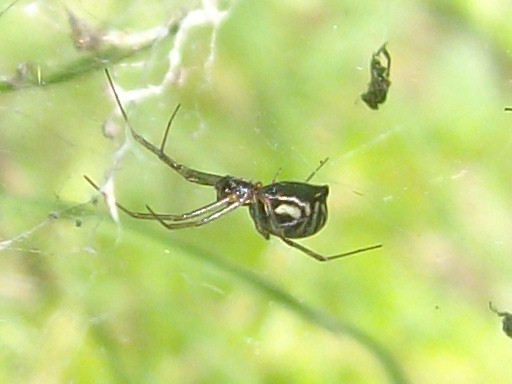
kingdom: Animalia
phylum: Arthropoda
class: Arachnida
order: Araneae
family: Linyphiidae
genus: Frontinella
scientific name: Frontinella pyramitela
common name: Bowl-and-doily spider
